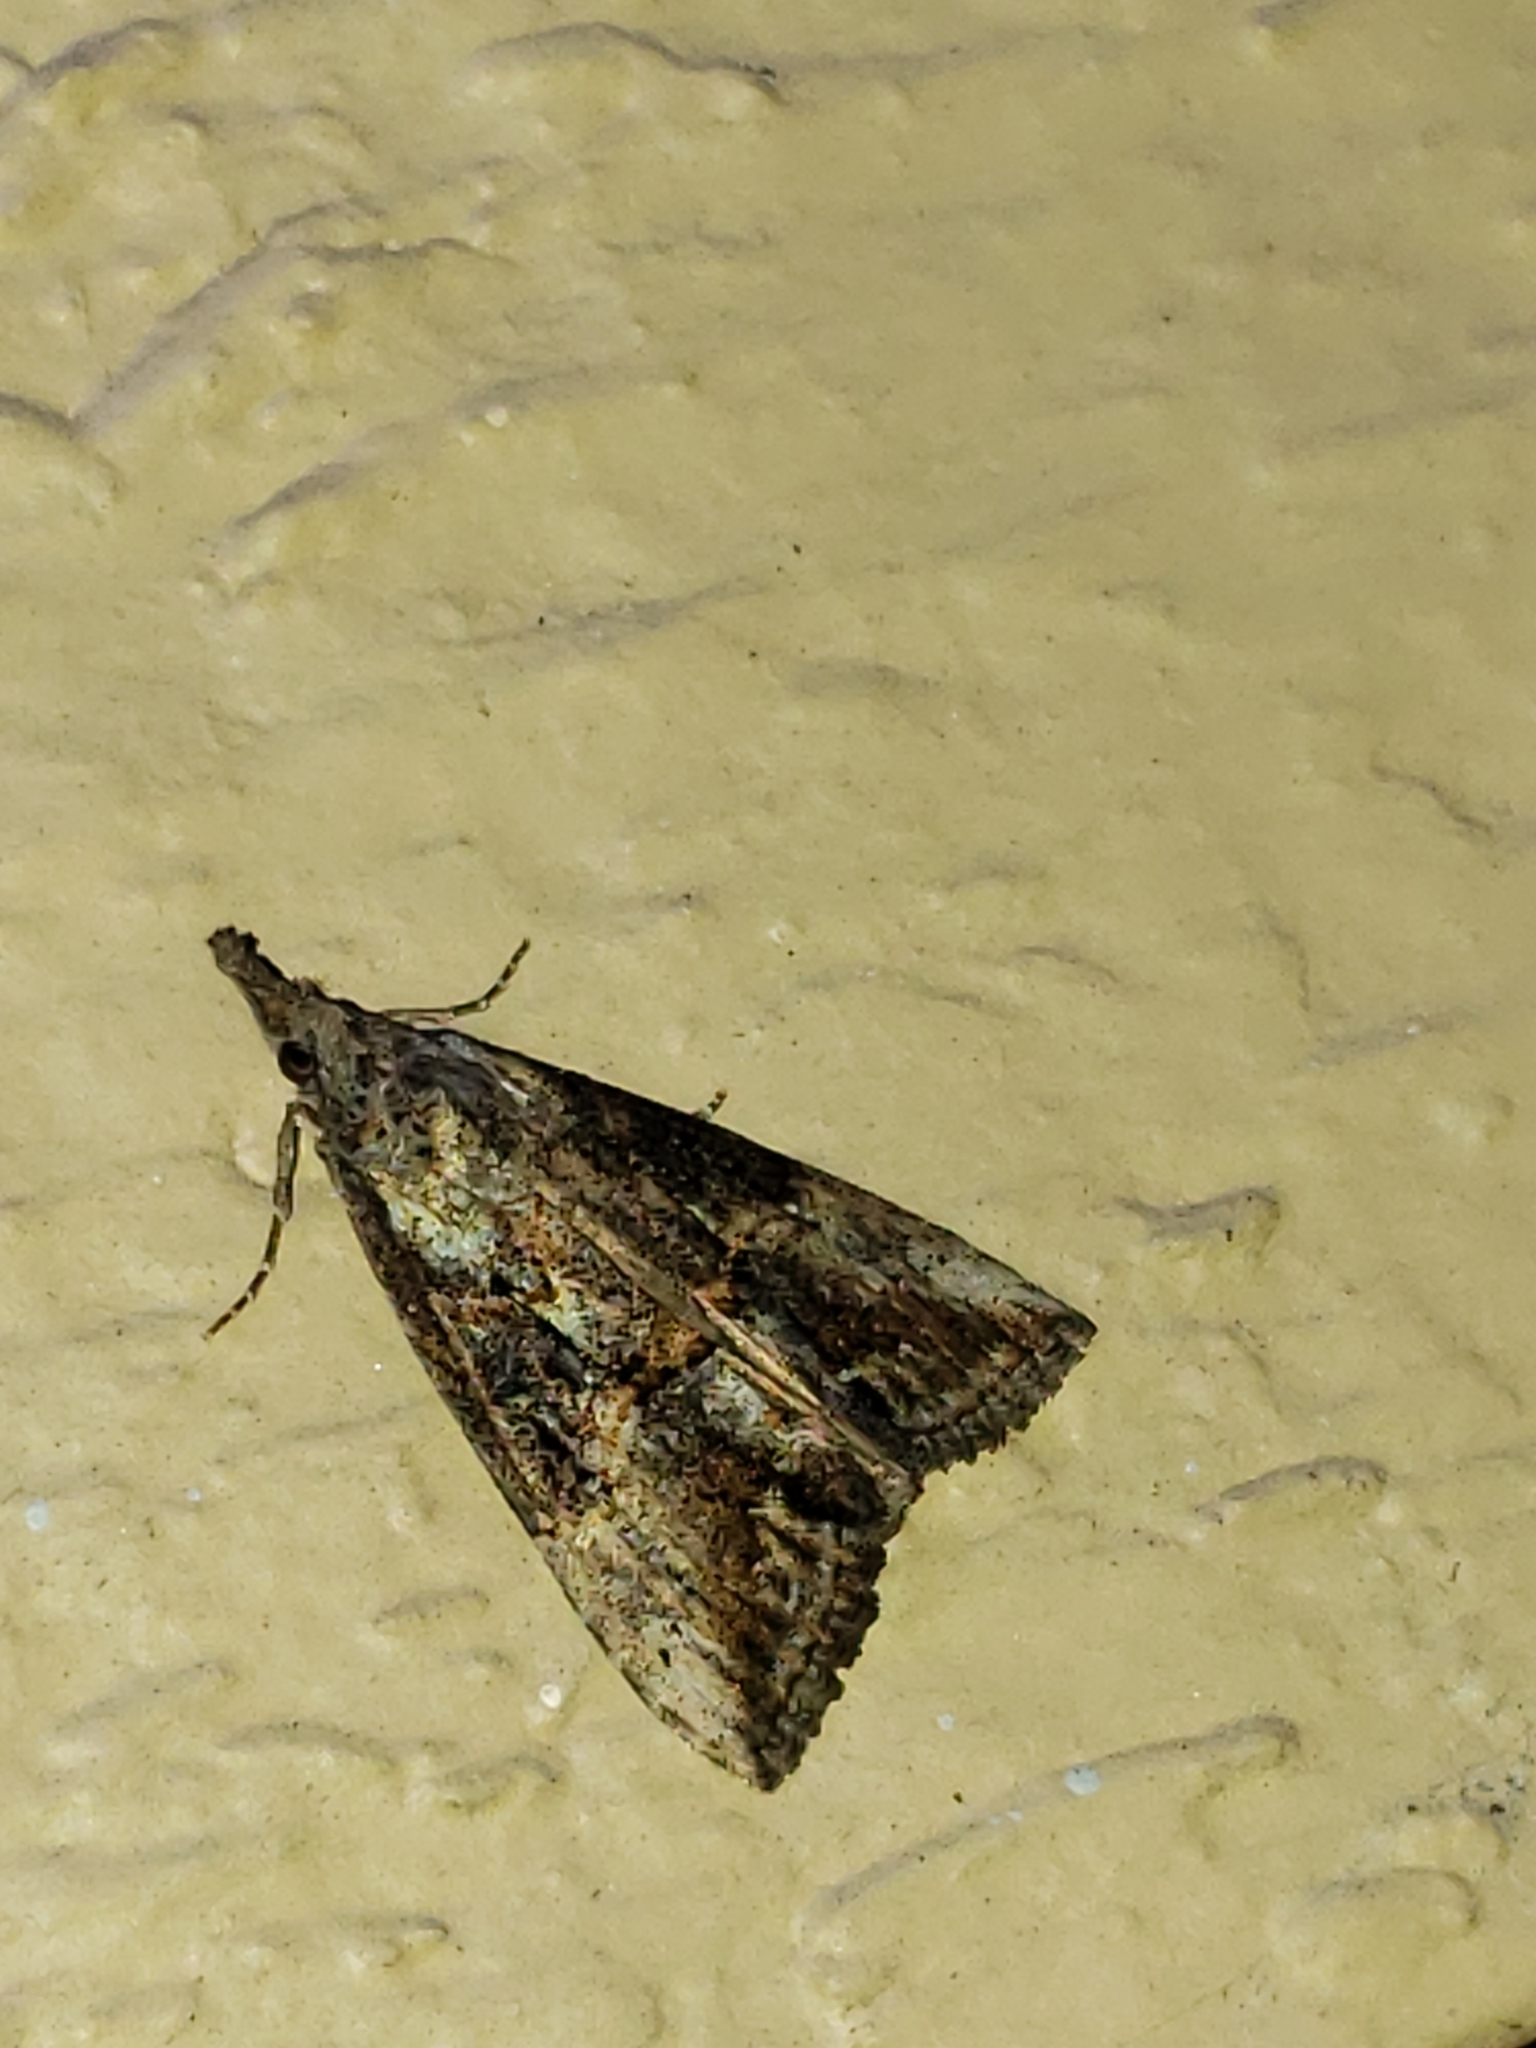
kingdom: Animalia
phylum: Arthropoda
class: Insecta
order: Lepidoptera
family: Erebidae
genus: Hypena
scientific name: Hypena scabra
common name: Green cloverworm
